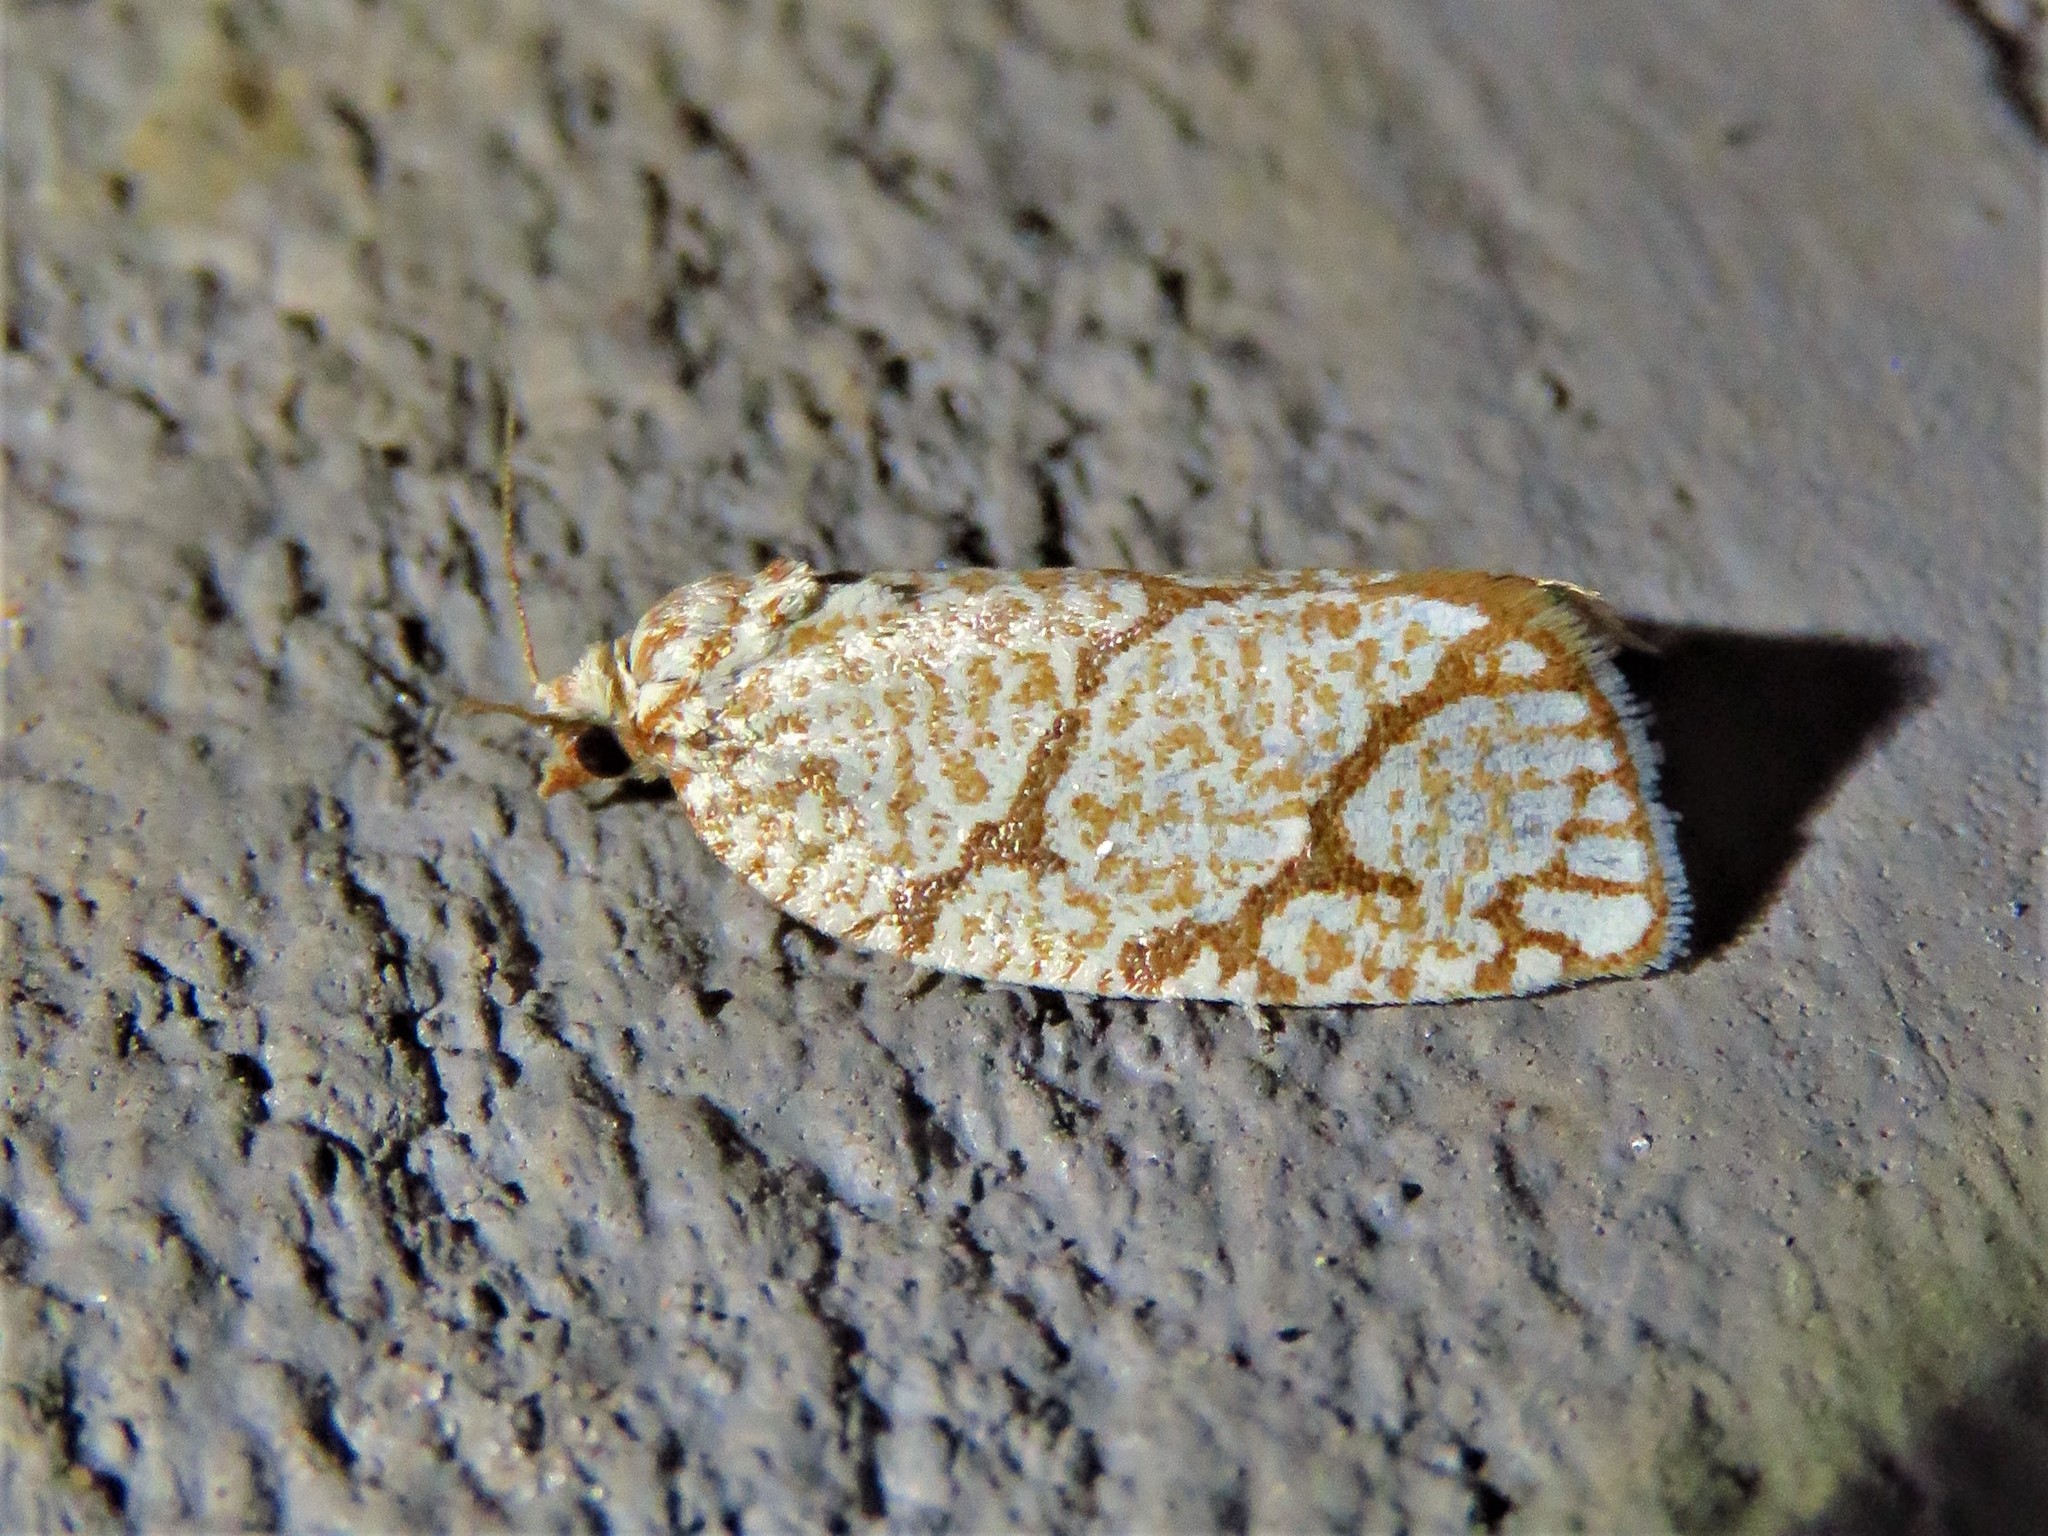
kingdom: Animalia
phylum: Arthropoda
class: Insecta
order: Lepidoptera
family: Tortricidae
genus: Argyrotaenia
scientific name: Argyrotaenia quercifoliana
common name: Yellow-winged oak leafroller moth
